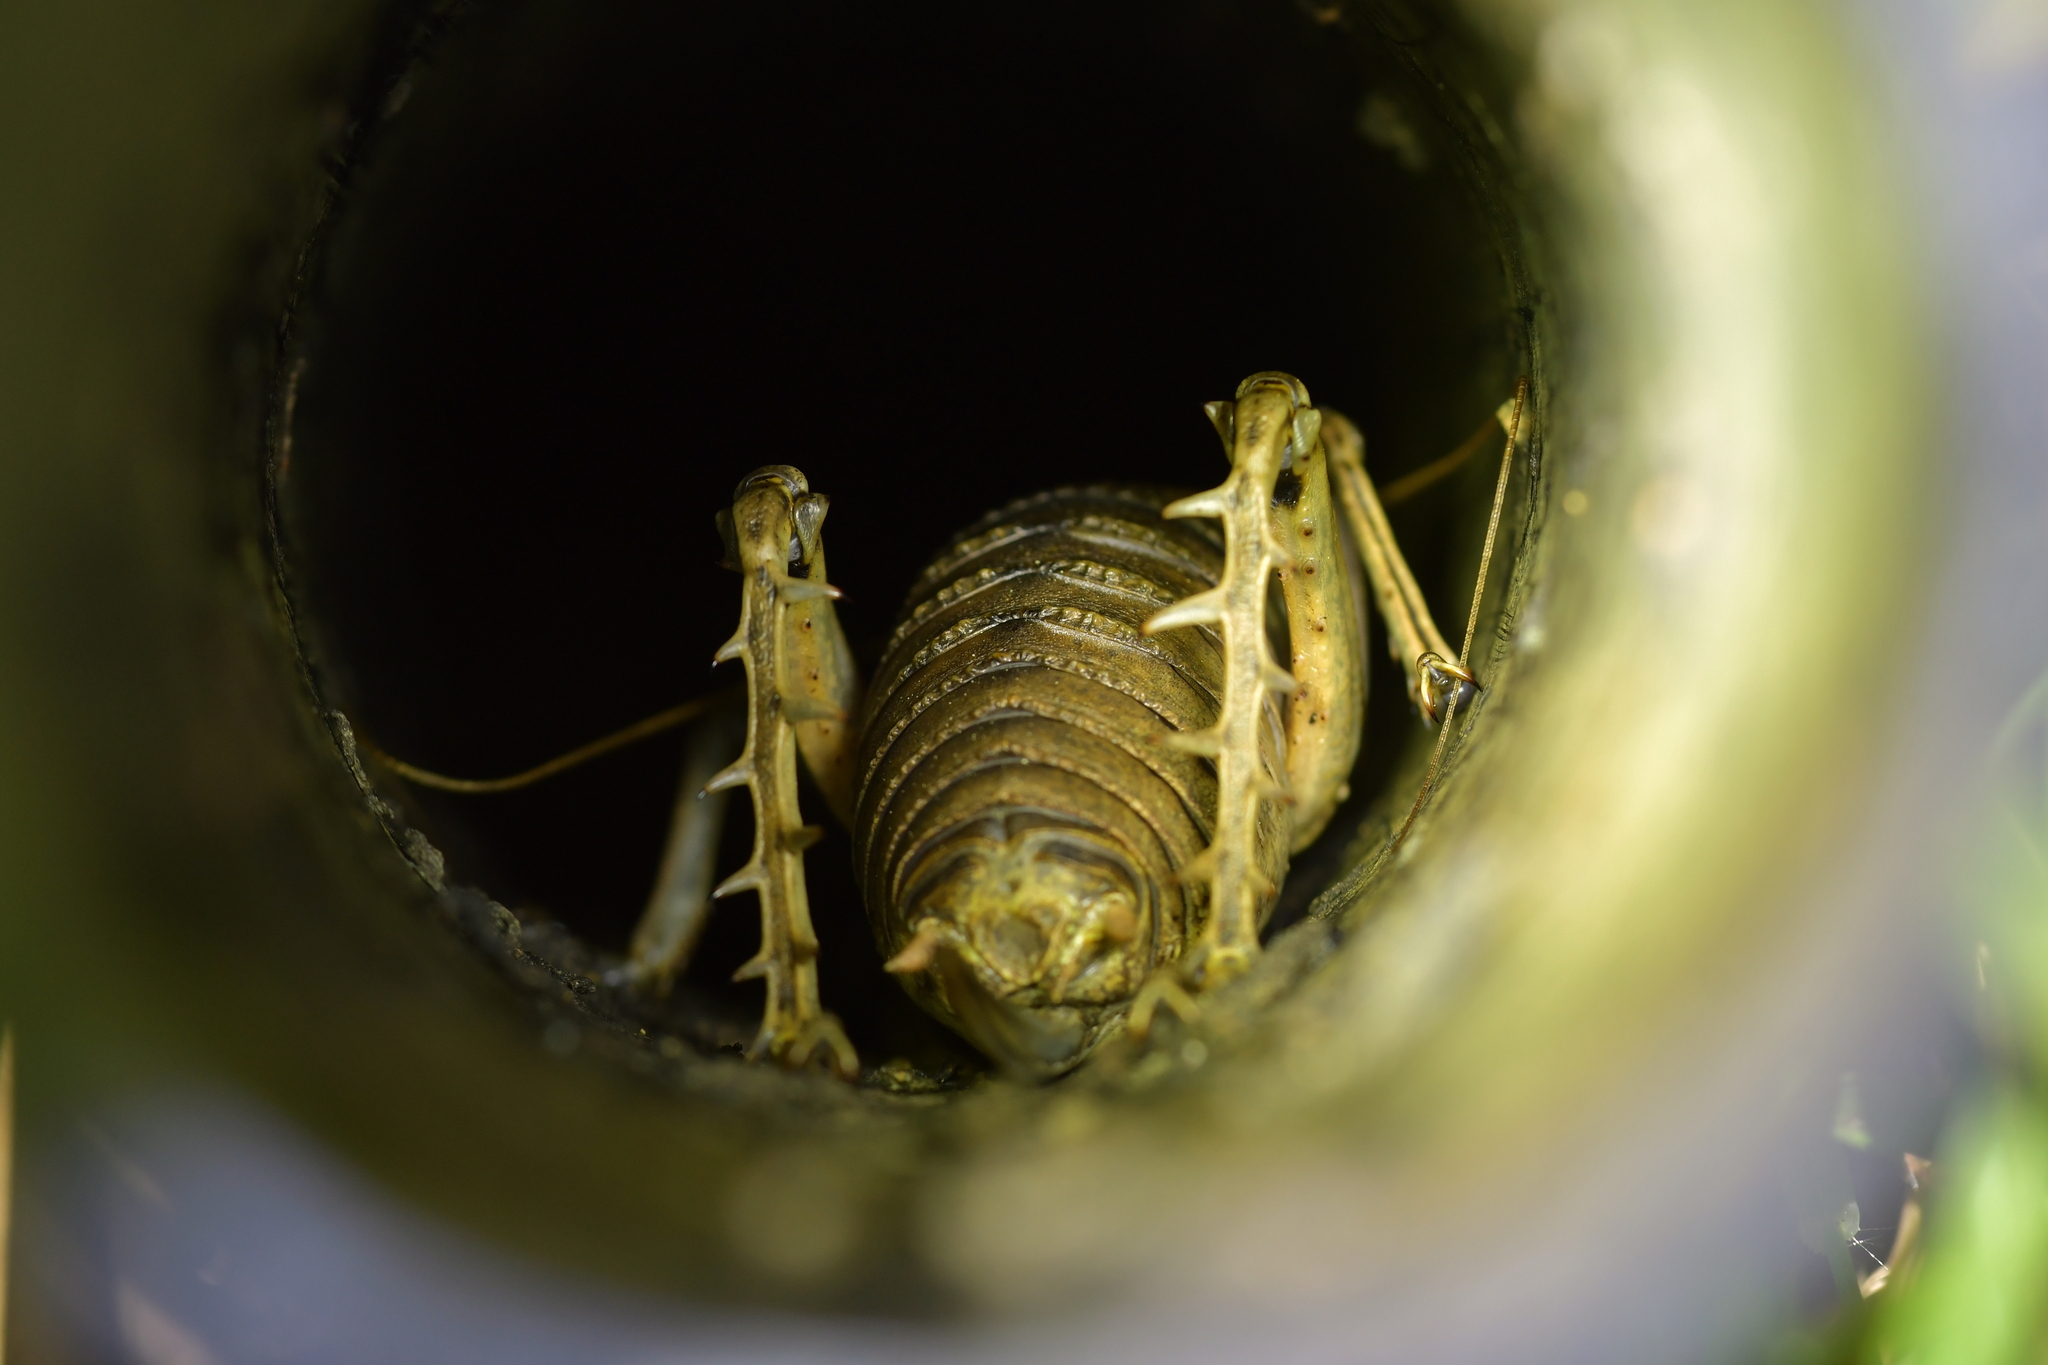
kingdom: Animalia
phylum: Arthropoda
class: Insecta
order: Orthoptera
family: Anostostomatidae
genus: Deinacrida
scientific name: Deinacrida rugosa
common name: Stephens island weta
